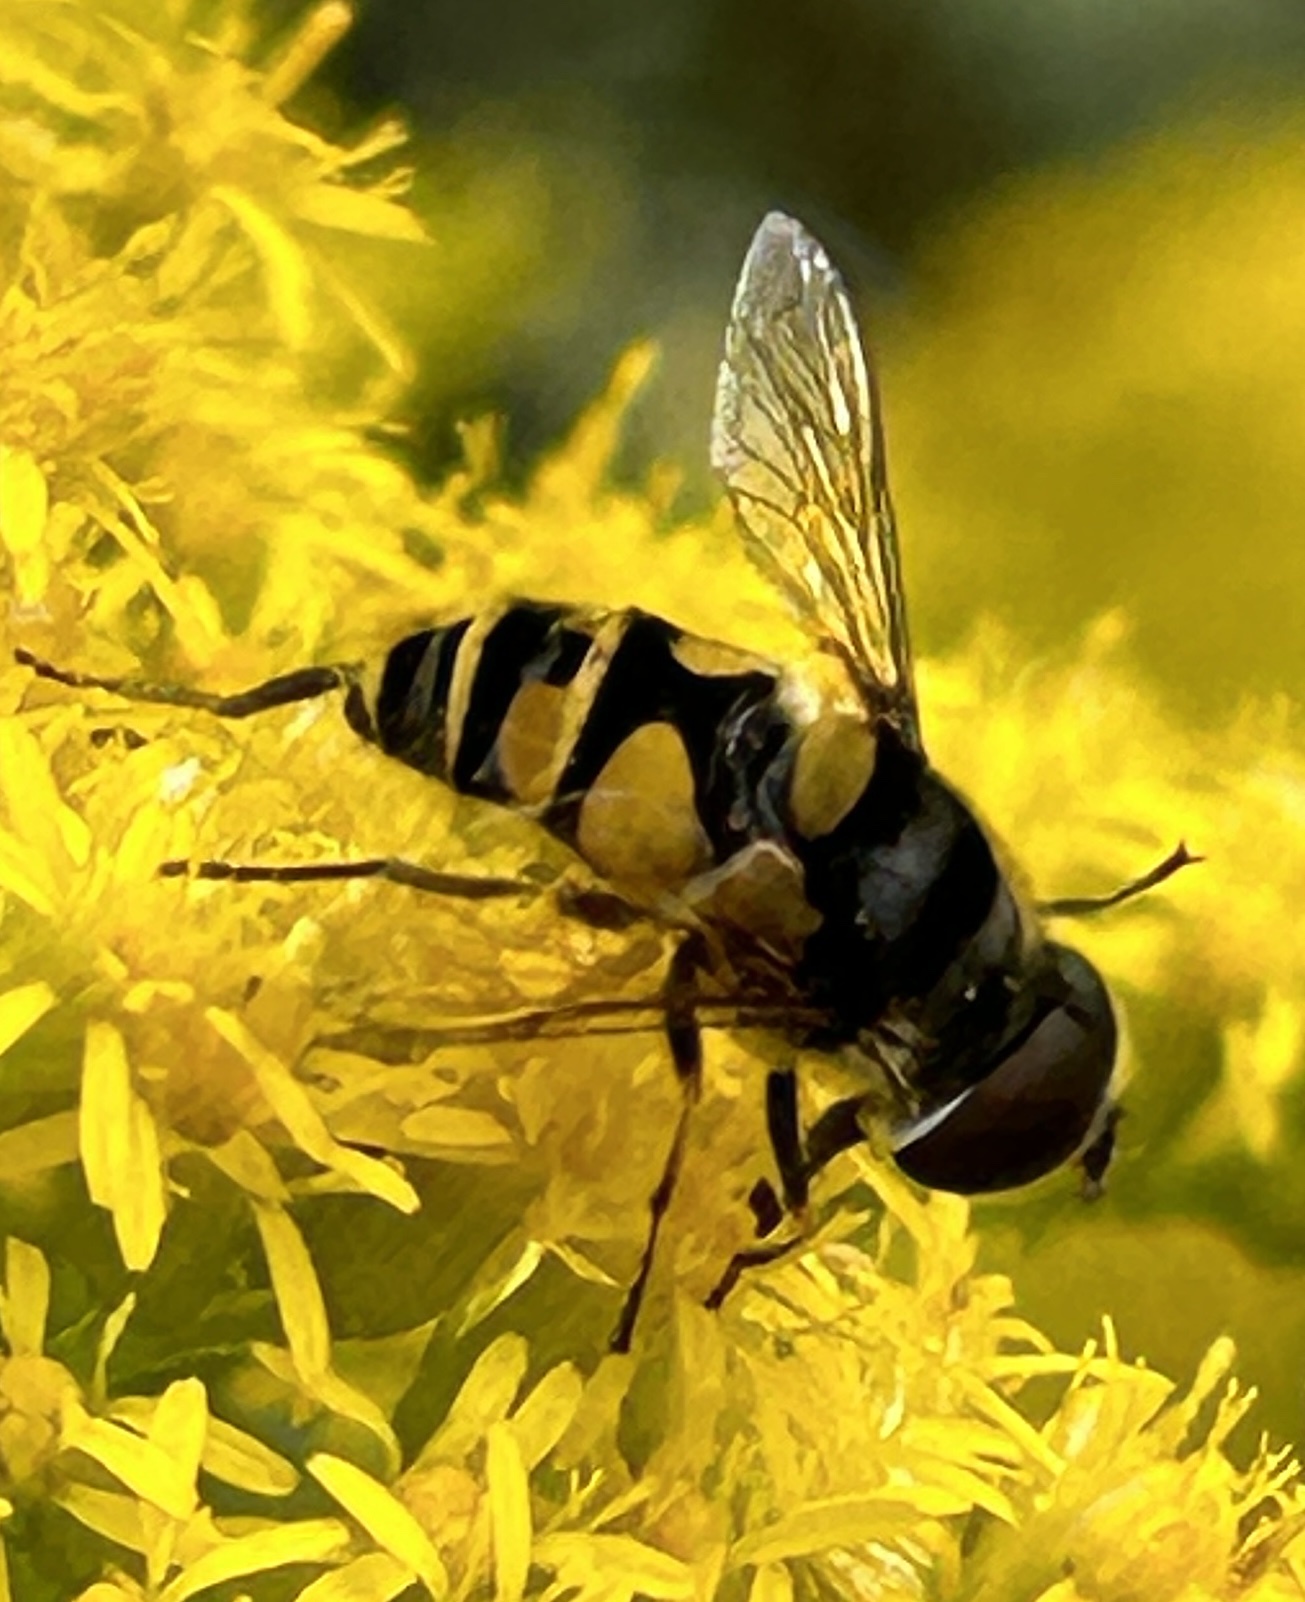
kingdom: Animalia
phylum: Arthropoda
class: Insecta
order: Diptera
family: Syrphidae
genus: Eristalis
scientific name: Eristalis transversa
